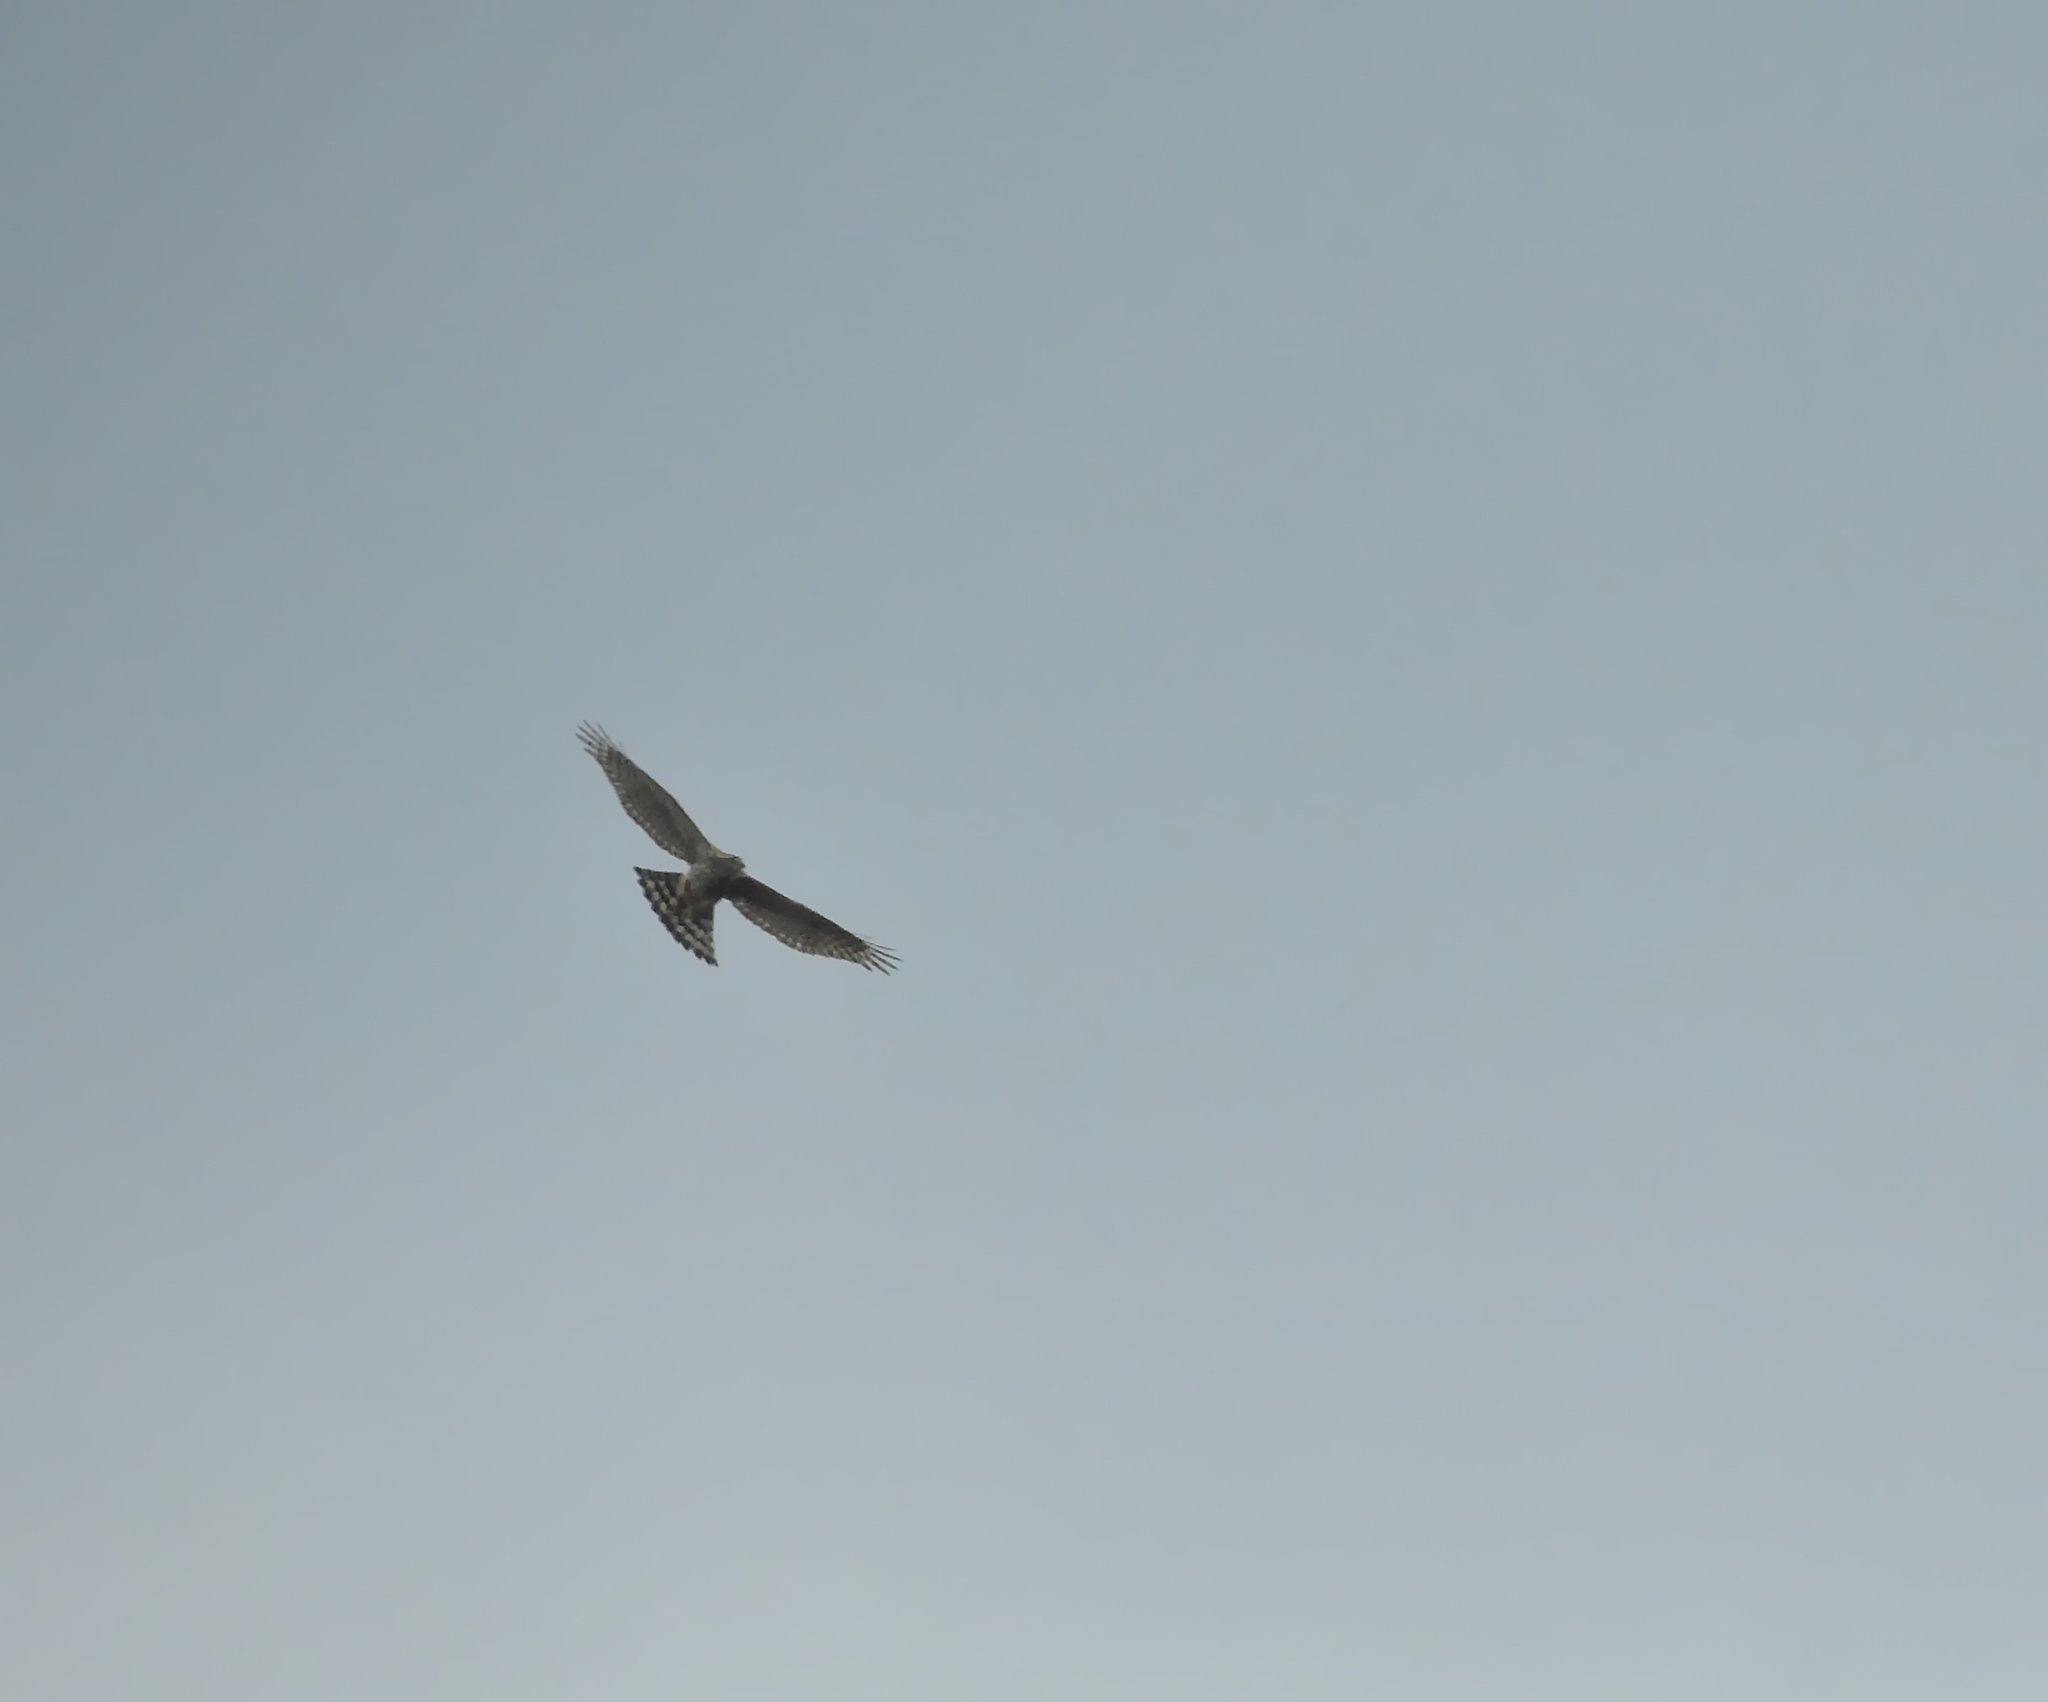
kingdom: Animalia
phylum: Chordata
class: Aves
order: Accipitriformes
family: Accipitridae
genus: Accipiter
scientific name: Accipiter nisus
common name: Eurasian sparrowhawk
